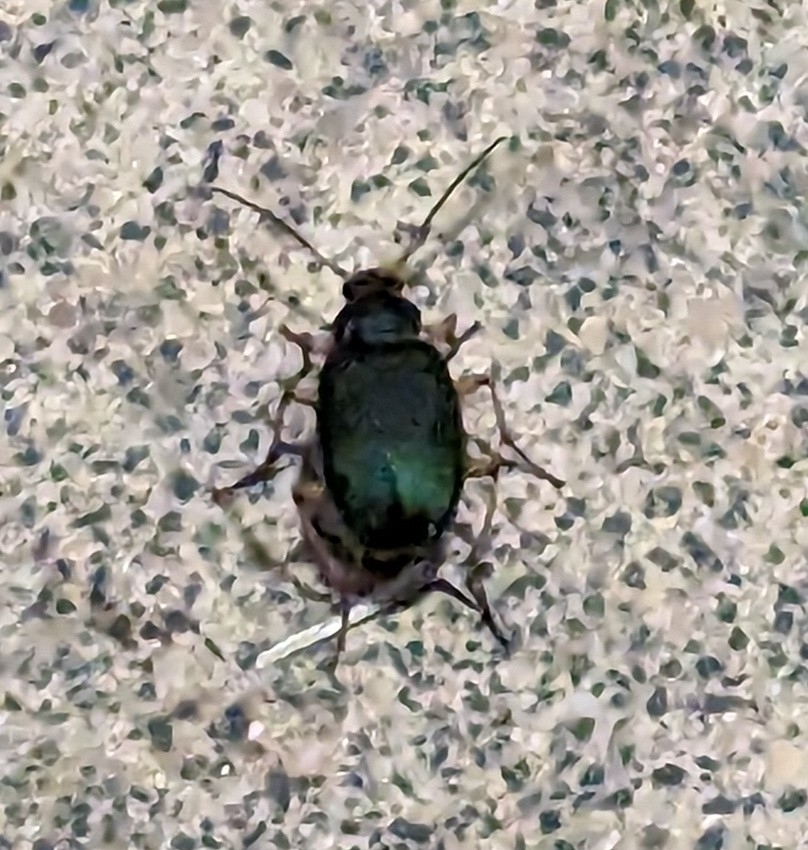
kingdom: Animalia
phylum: Arthropoda
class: Insecta
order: Coleoptera
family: Cerambycidae
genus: Prionus
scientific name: Prionus laticollis
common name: Broad necked prionus
